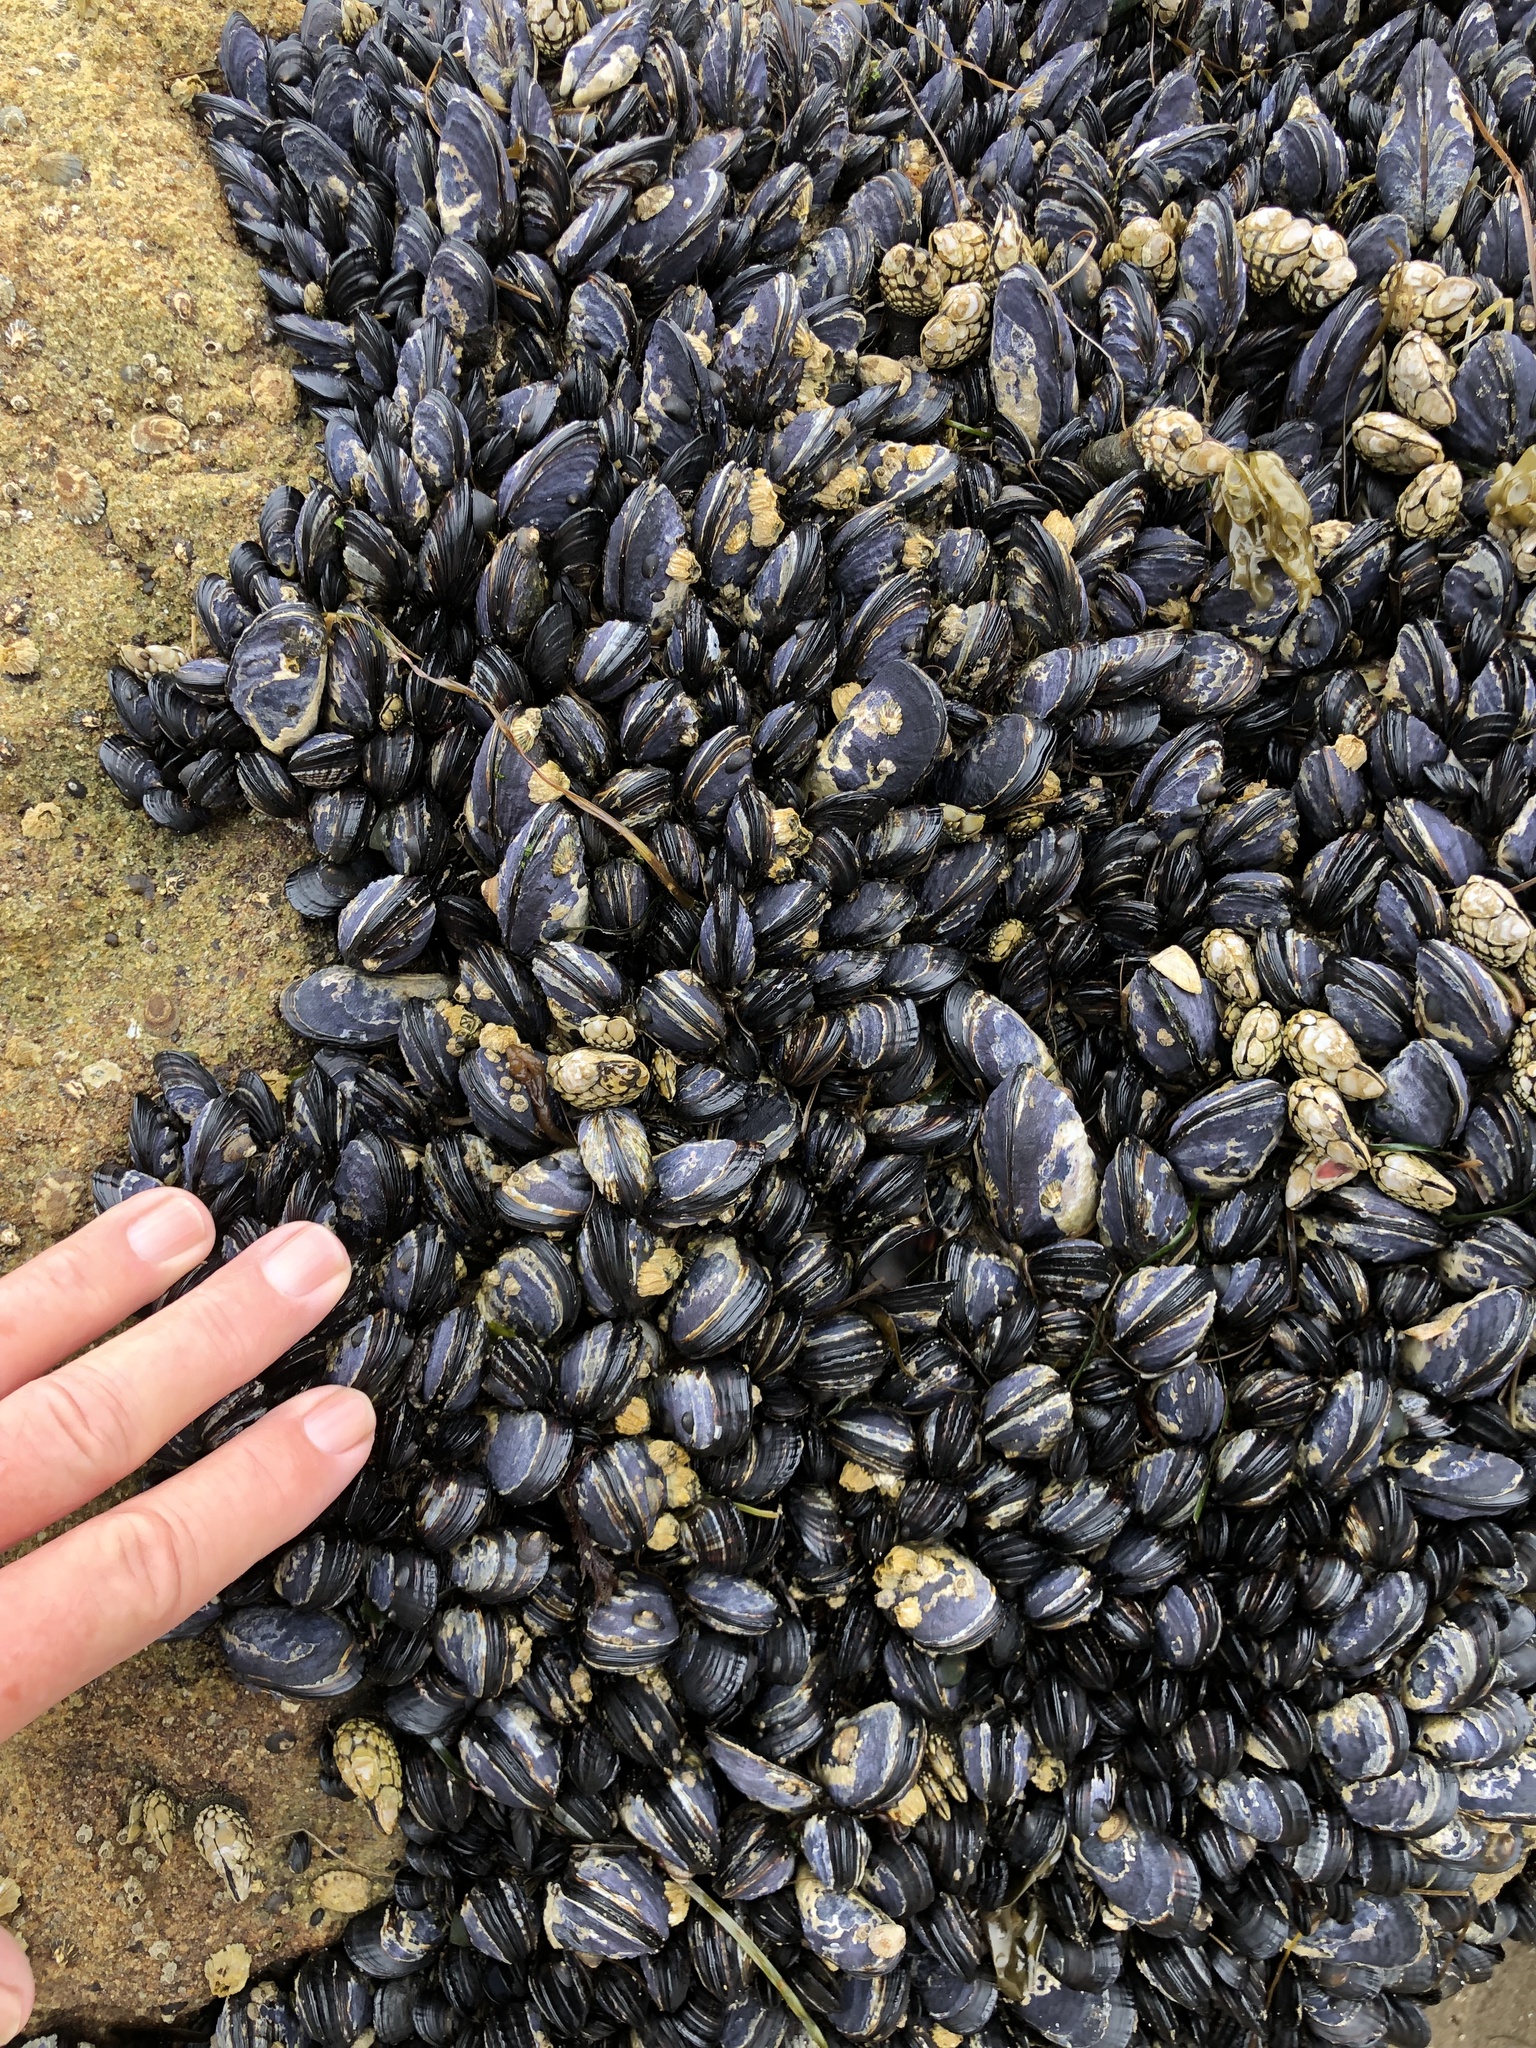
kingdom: Animalia
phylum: Mollusca
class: Bivalvia
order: Mytilida
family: Mytilidae
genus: Mytilus
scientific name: Mytilus californianus
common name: California mussel
